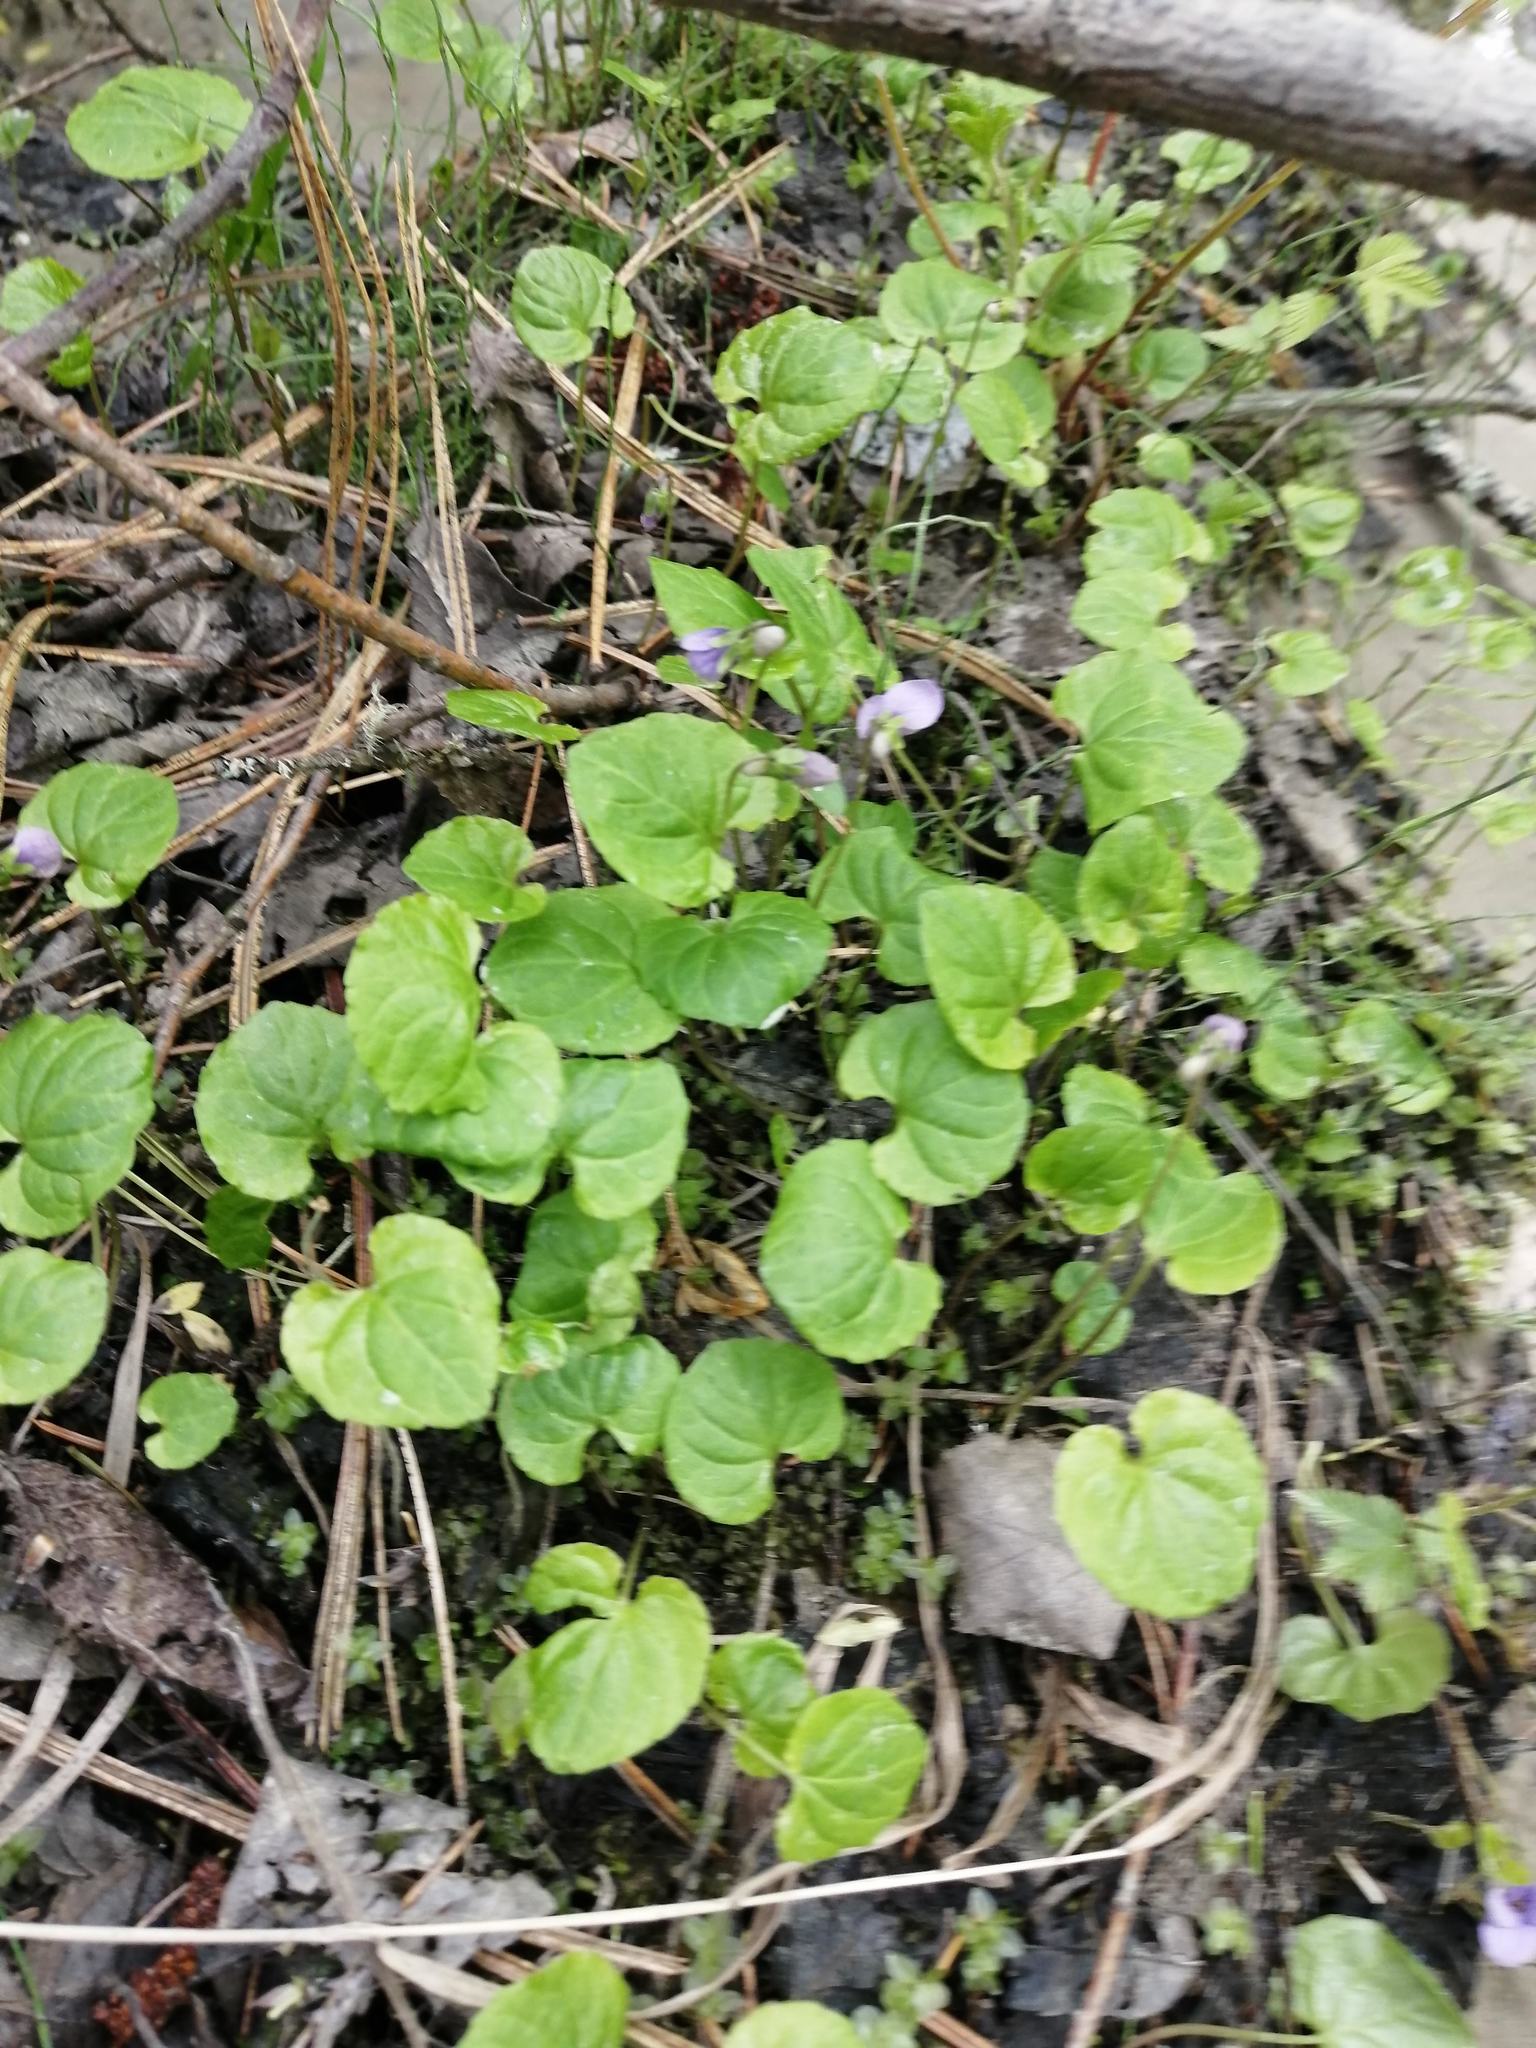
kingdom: Plantae
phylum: Tracheophyta
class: Magnoliopsida
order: Malpighiales
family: Violaceae
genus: Viola
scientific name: Viola selkirkii
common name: Selkirk's violet
